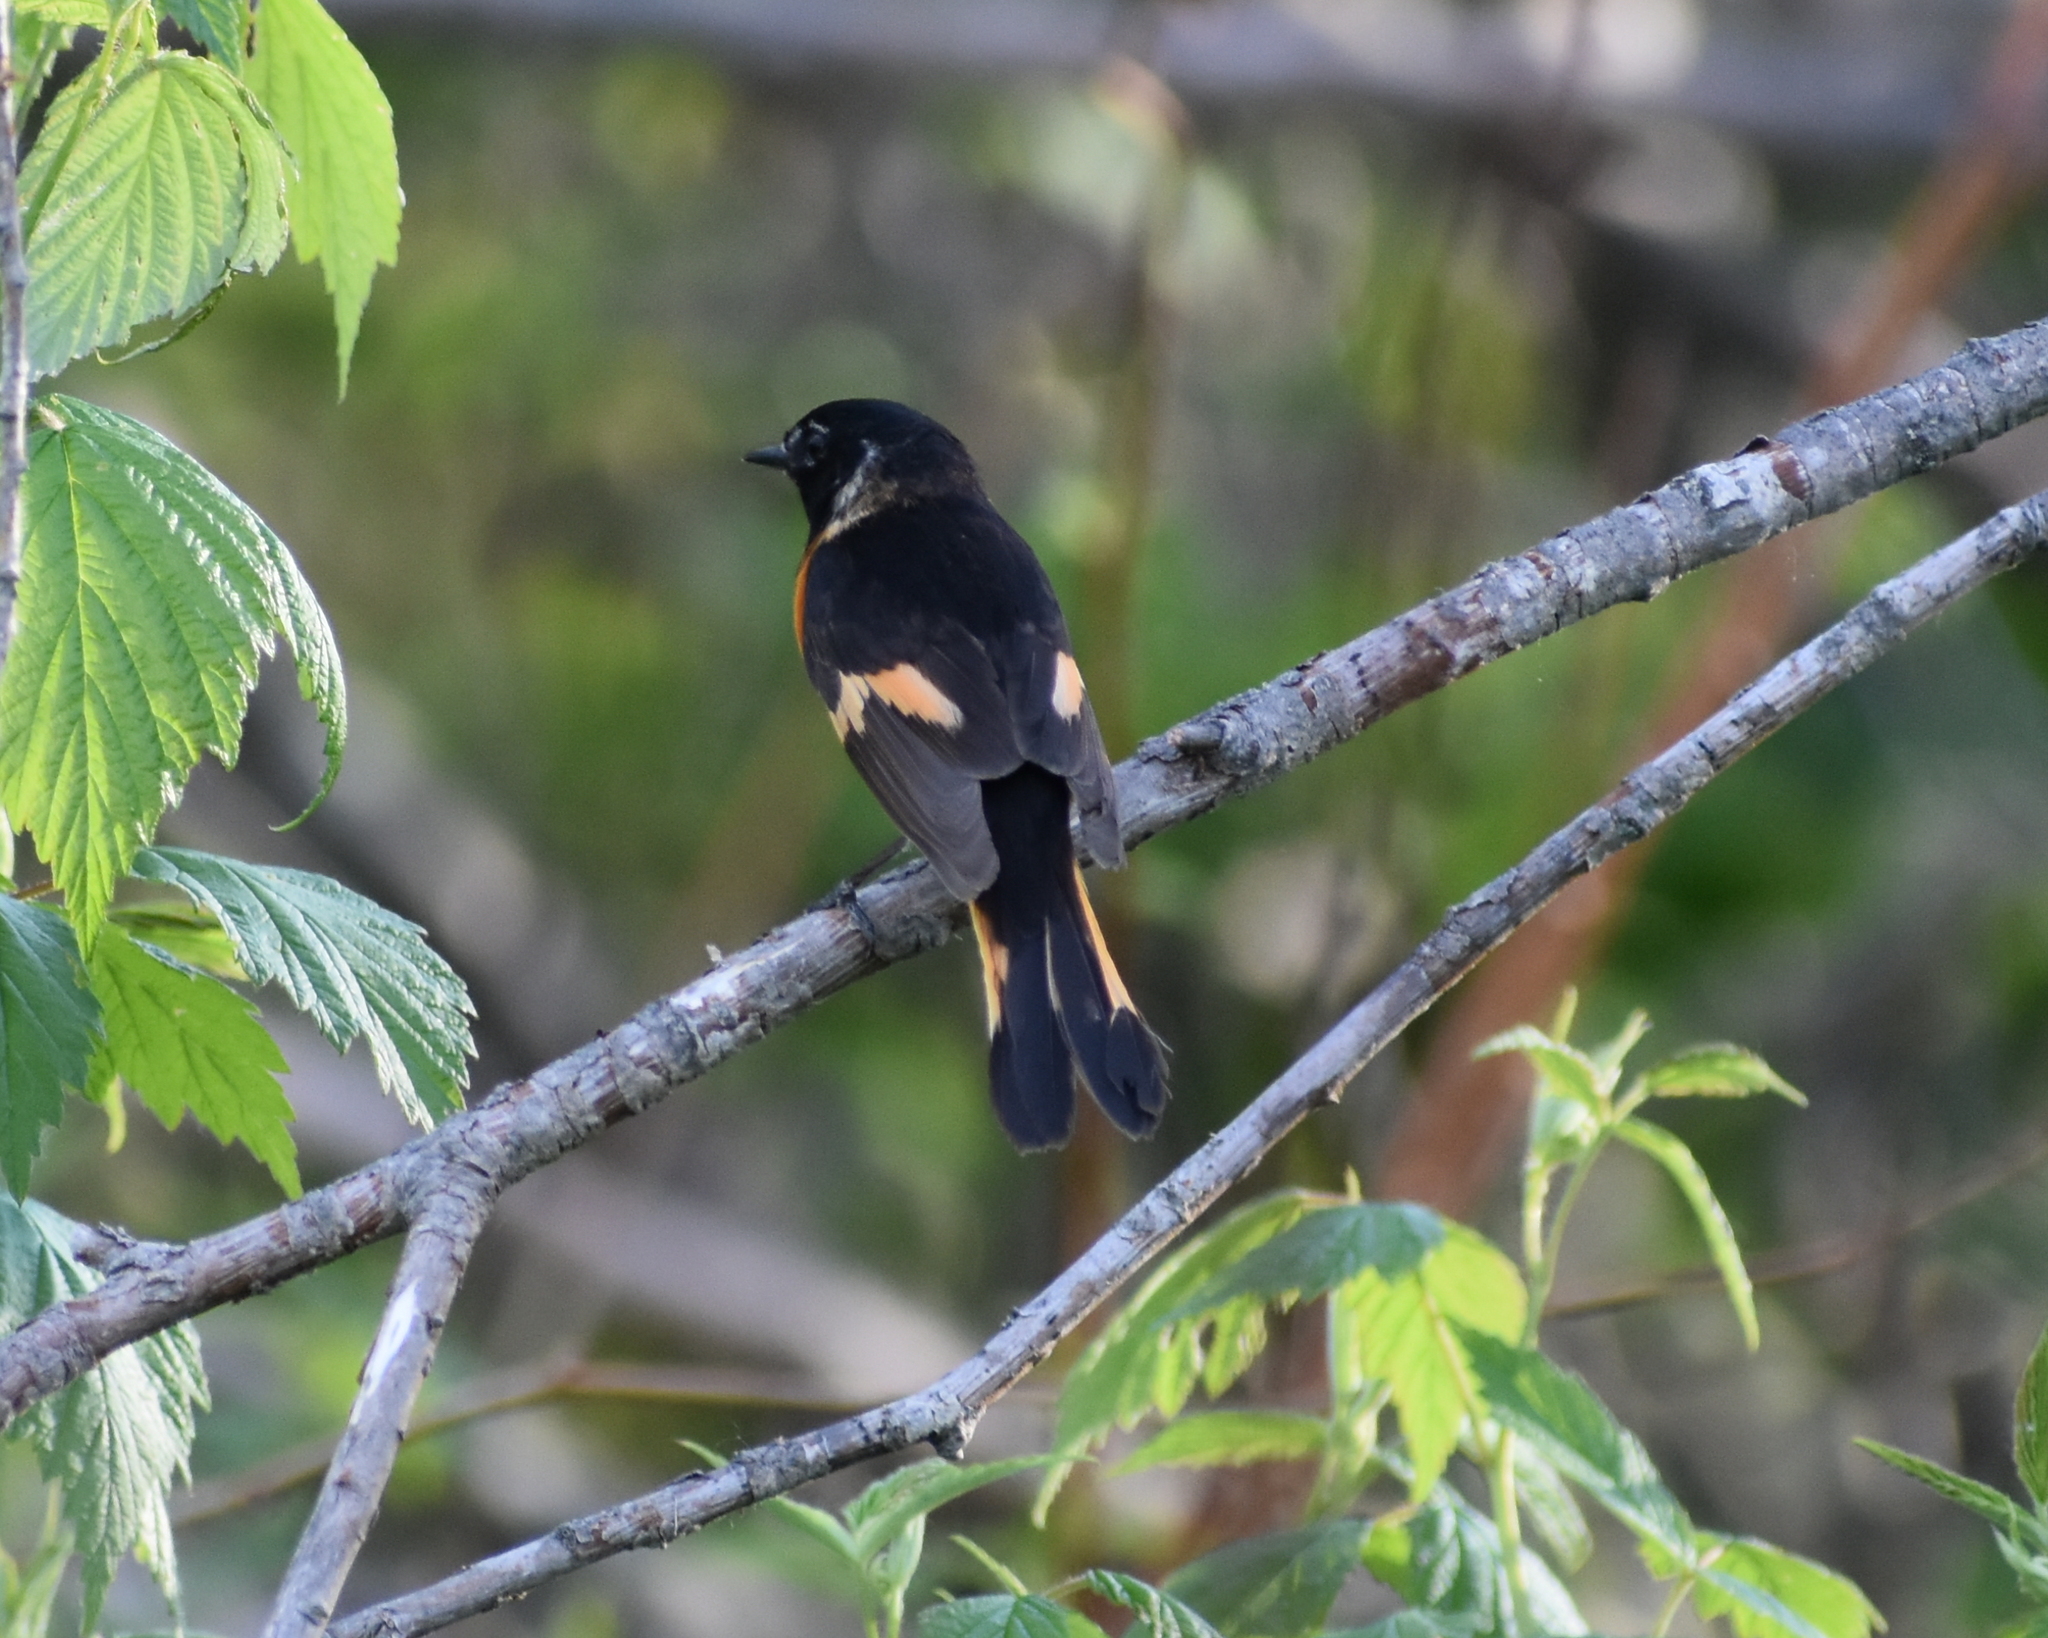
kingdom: Animalia
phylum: Chordata
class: Aves
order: Passeriformes
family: Parulidae
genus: Setophaga
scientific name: Setophaga ruticilla
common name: American redstart
